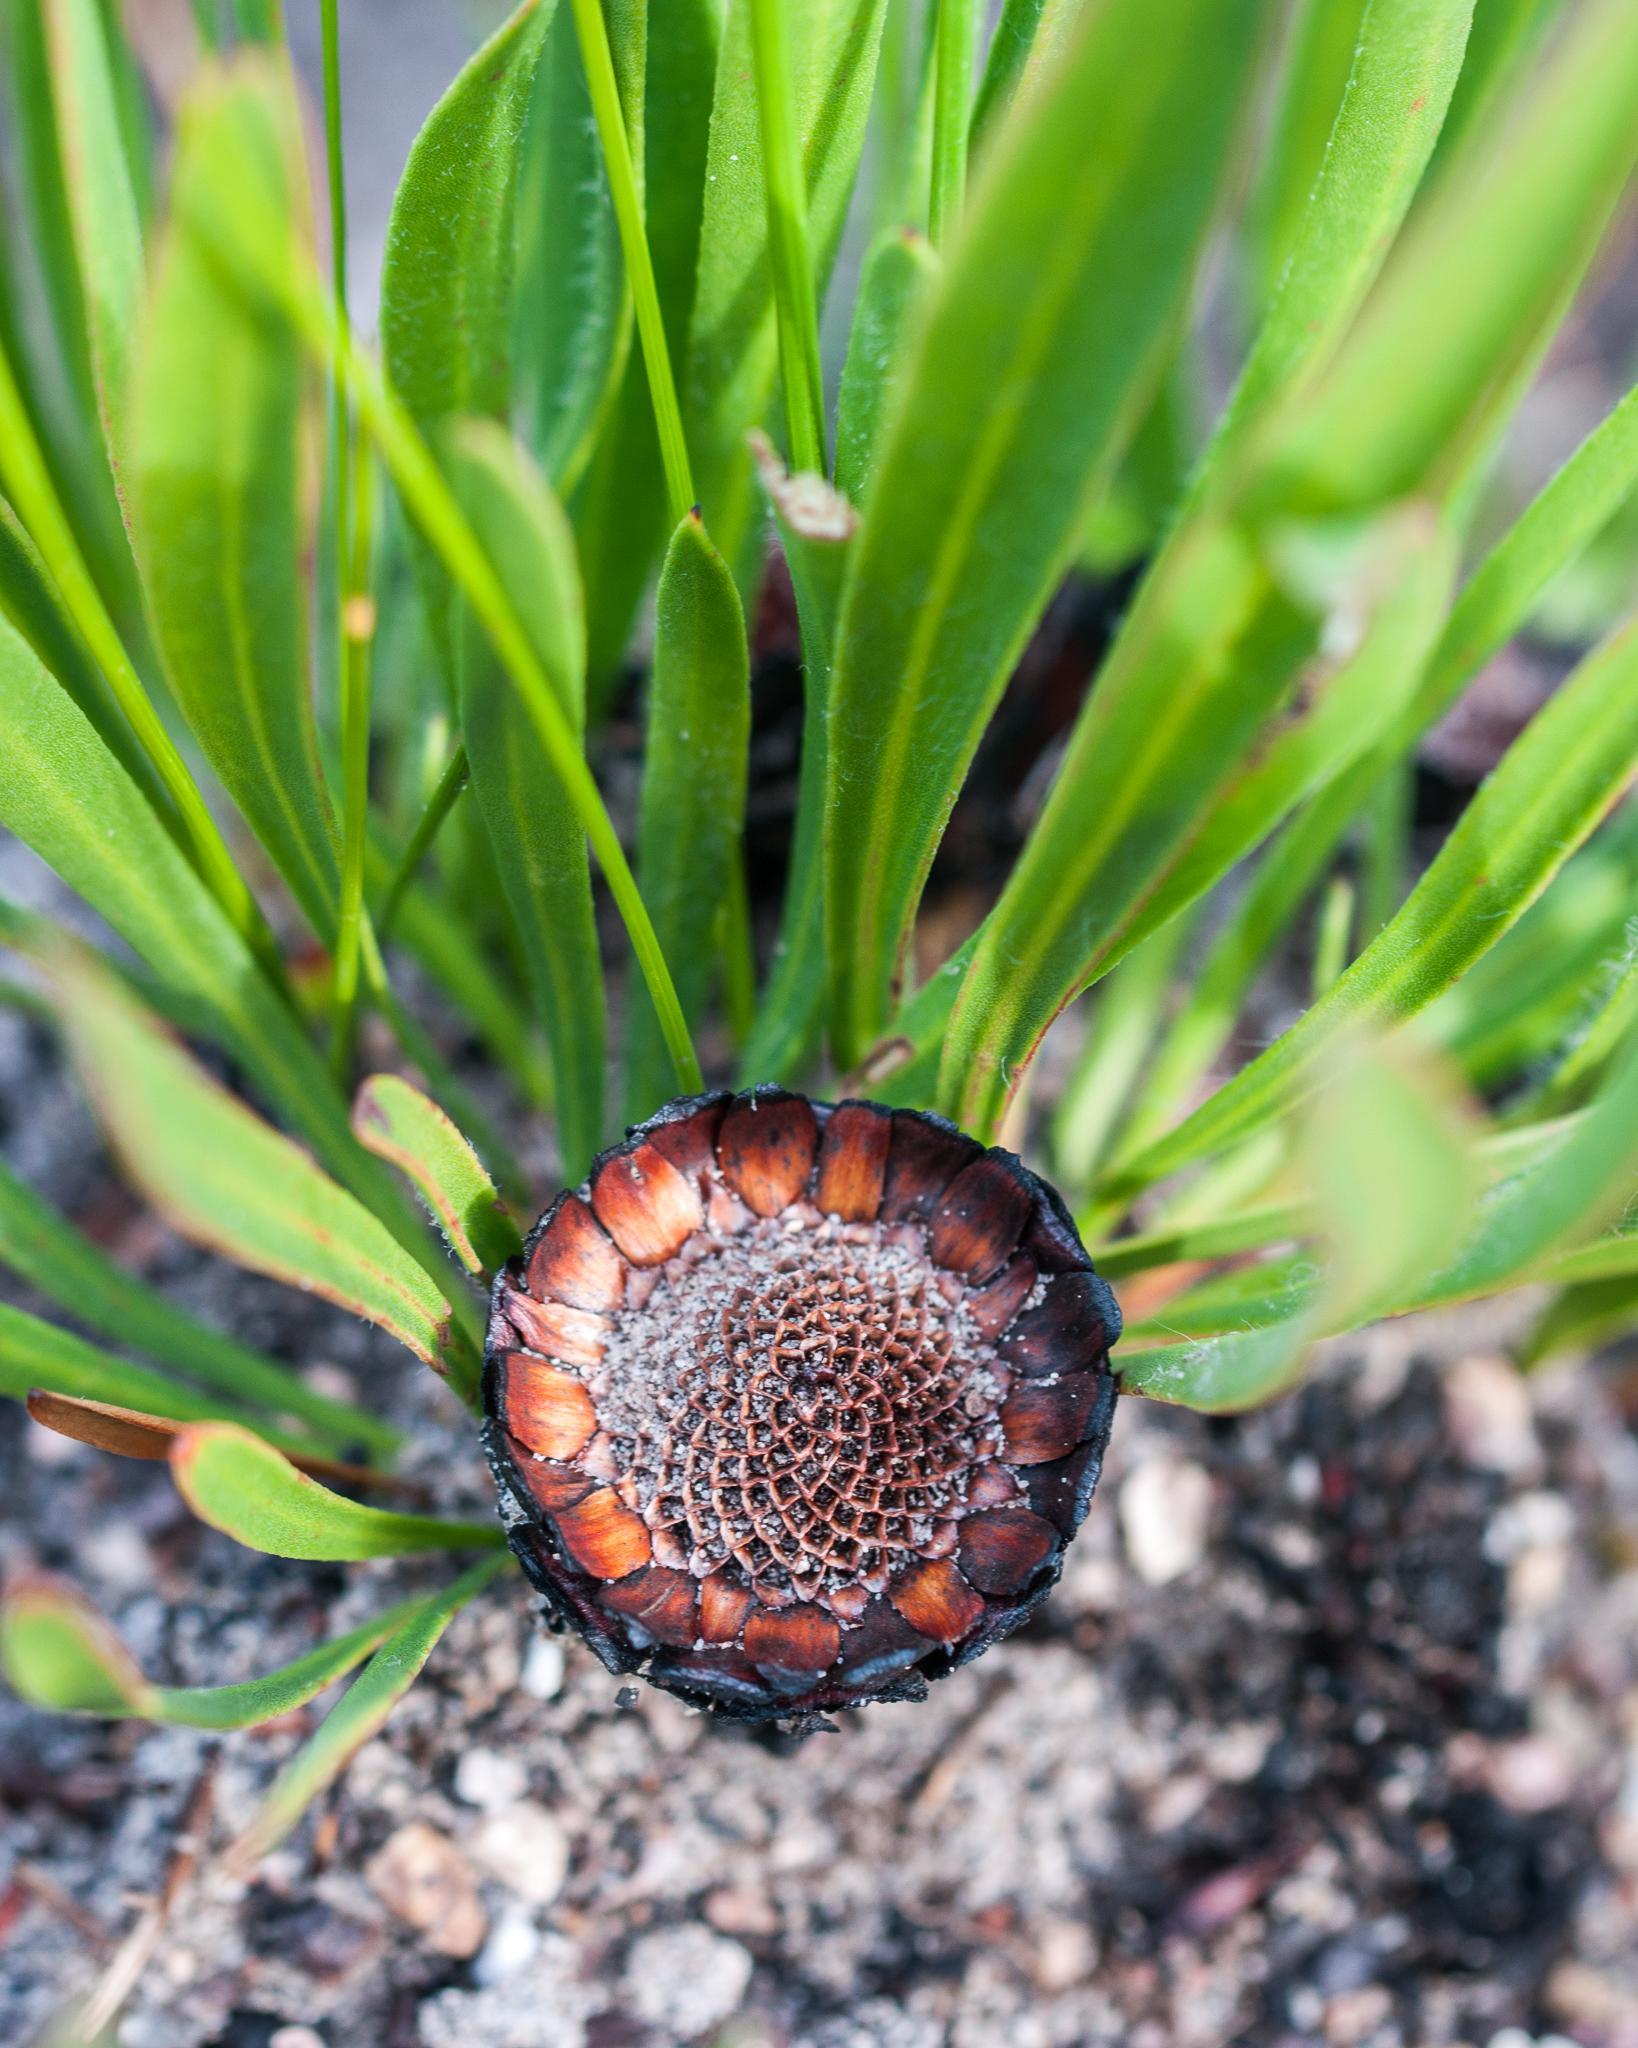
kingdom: Plantae
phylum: Tracheophyta
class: Magnoliopsida
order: Proteales
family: Proteaceae
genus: Protea
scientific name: Protea scabra
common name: Sandpaper-leaf sugarbush
